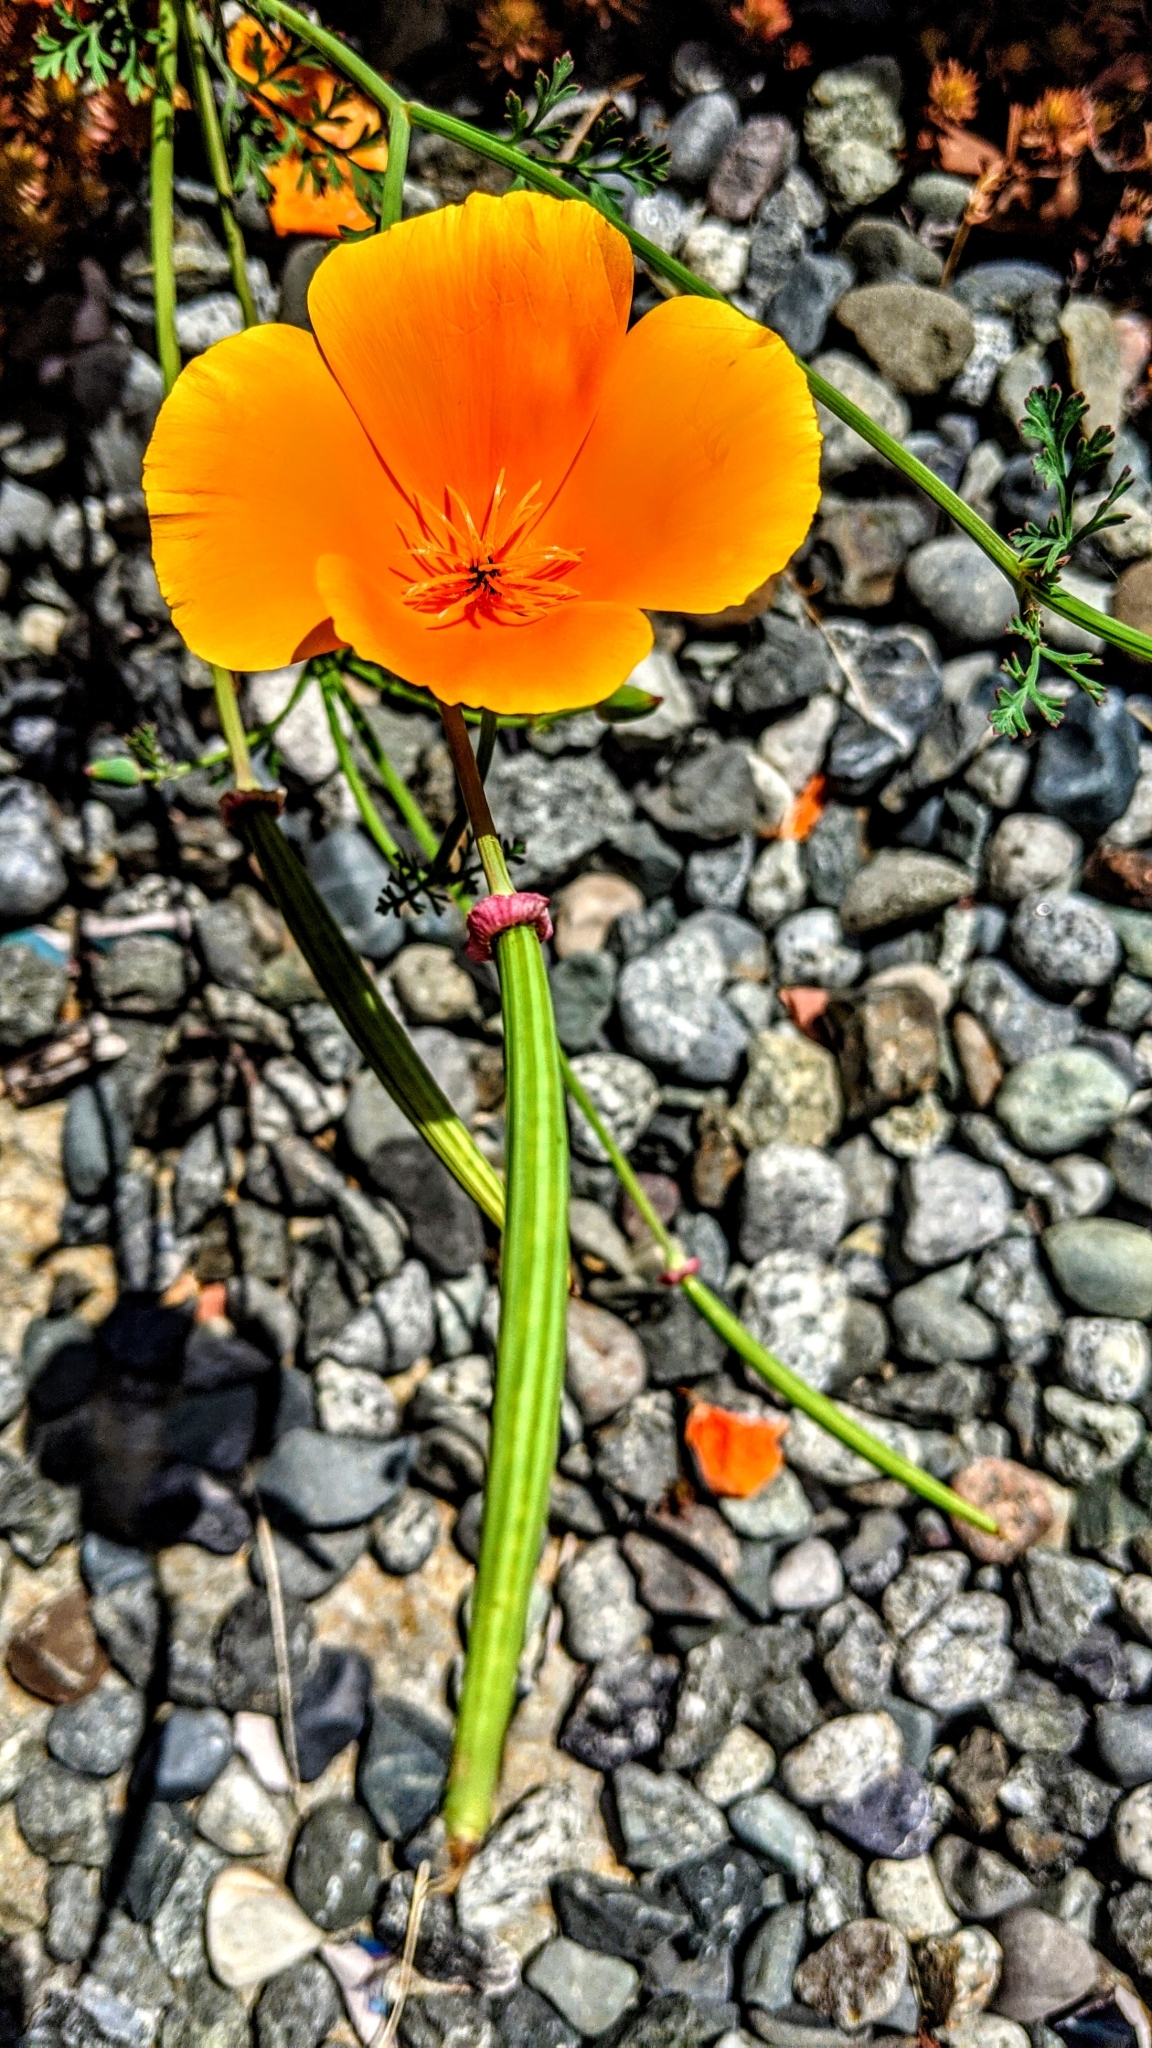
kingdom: Plantae
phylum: Tracheophyta
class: Magnoliopsida
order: Ranunculales
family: Papaveraceae
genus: Eschscholzia
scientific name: Eschscholzia californica
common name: California poppy
